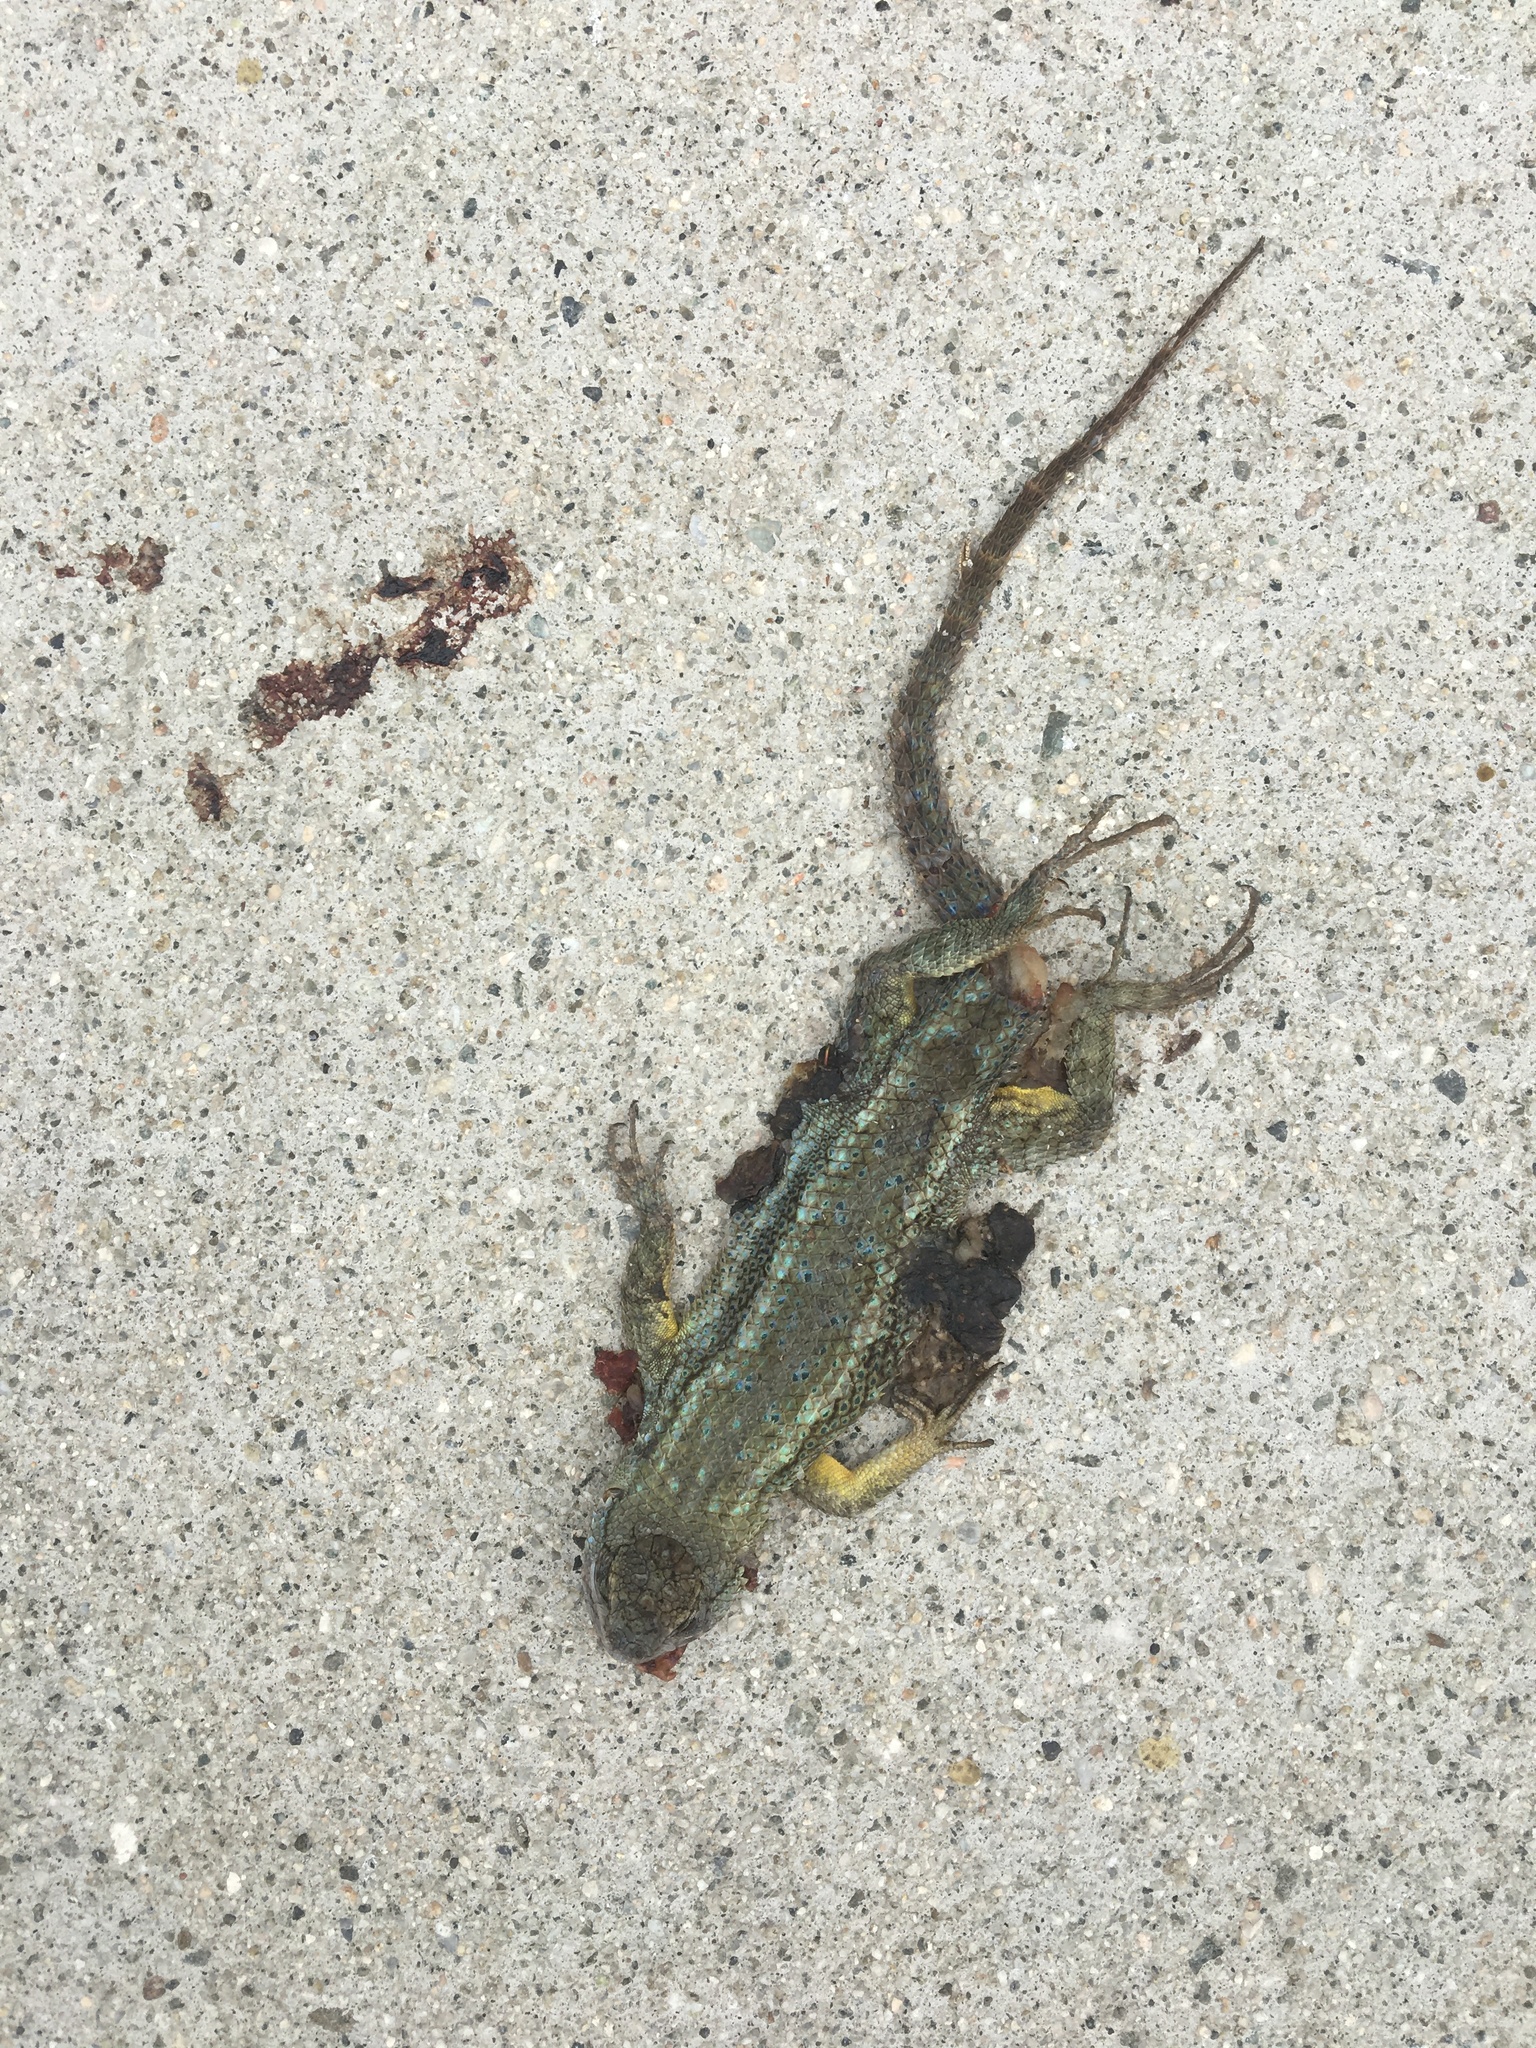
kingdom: Animalia
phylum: Chordata
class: Squamata
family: Phrynosomatidae
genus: Sceloporus
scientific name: Sceloporus occidentalis
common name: Western fence lizard
